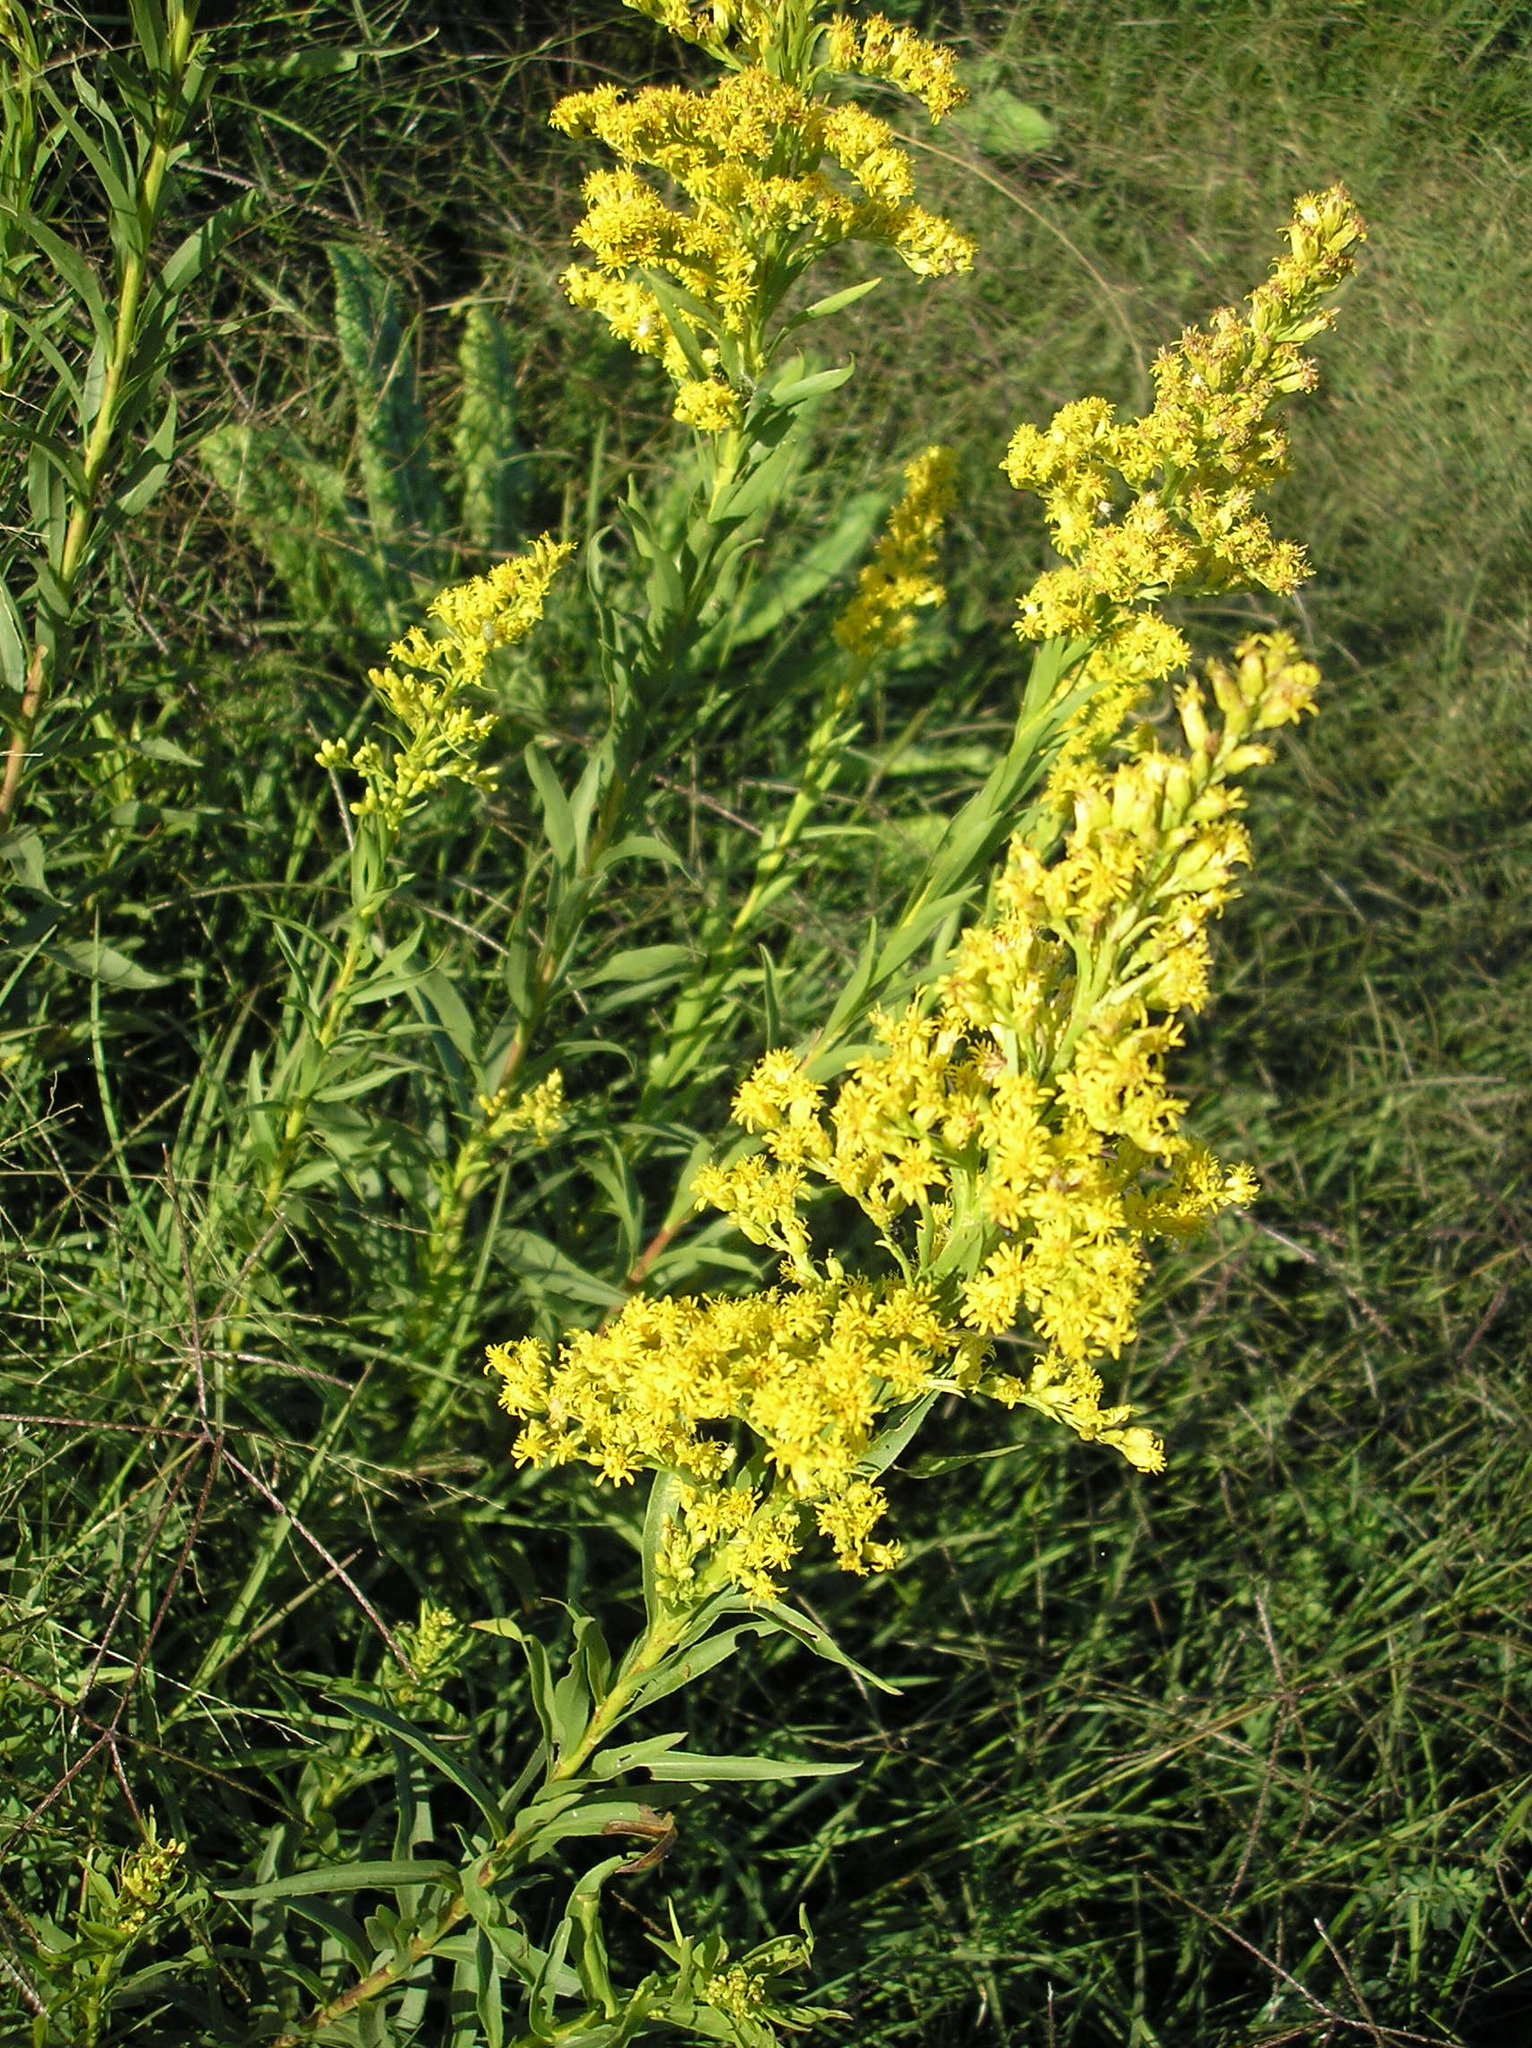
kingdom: Plantae
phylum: Tracheophyta
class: Magnoliopsida
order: Asterales
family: Asteraceae
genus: Solidago
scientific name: Solidago chilensis
